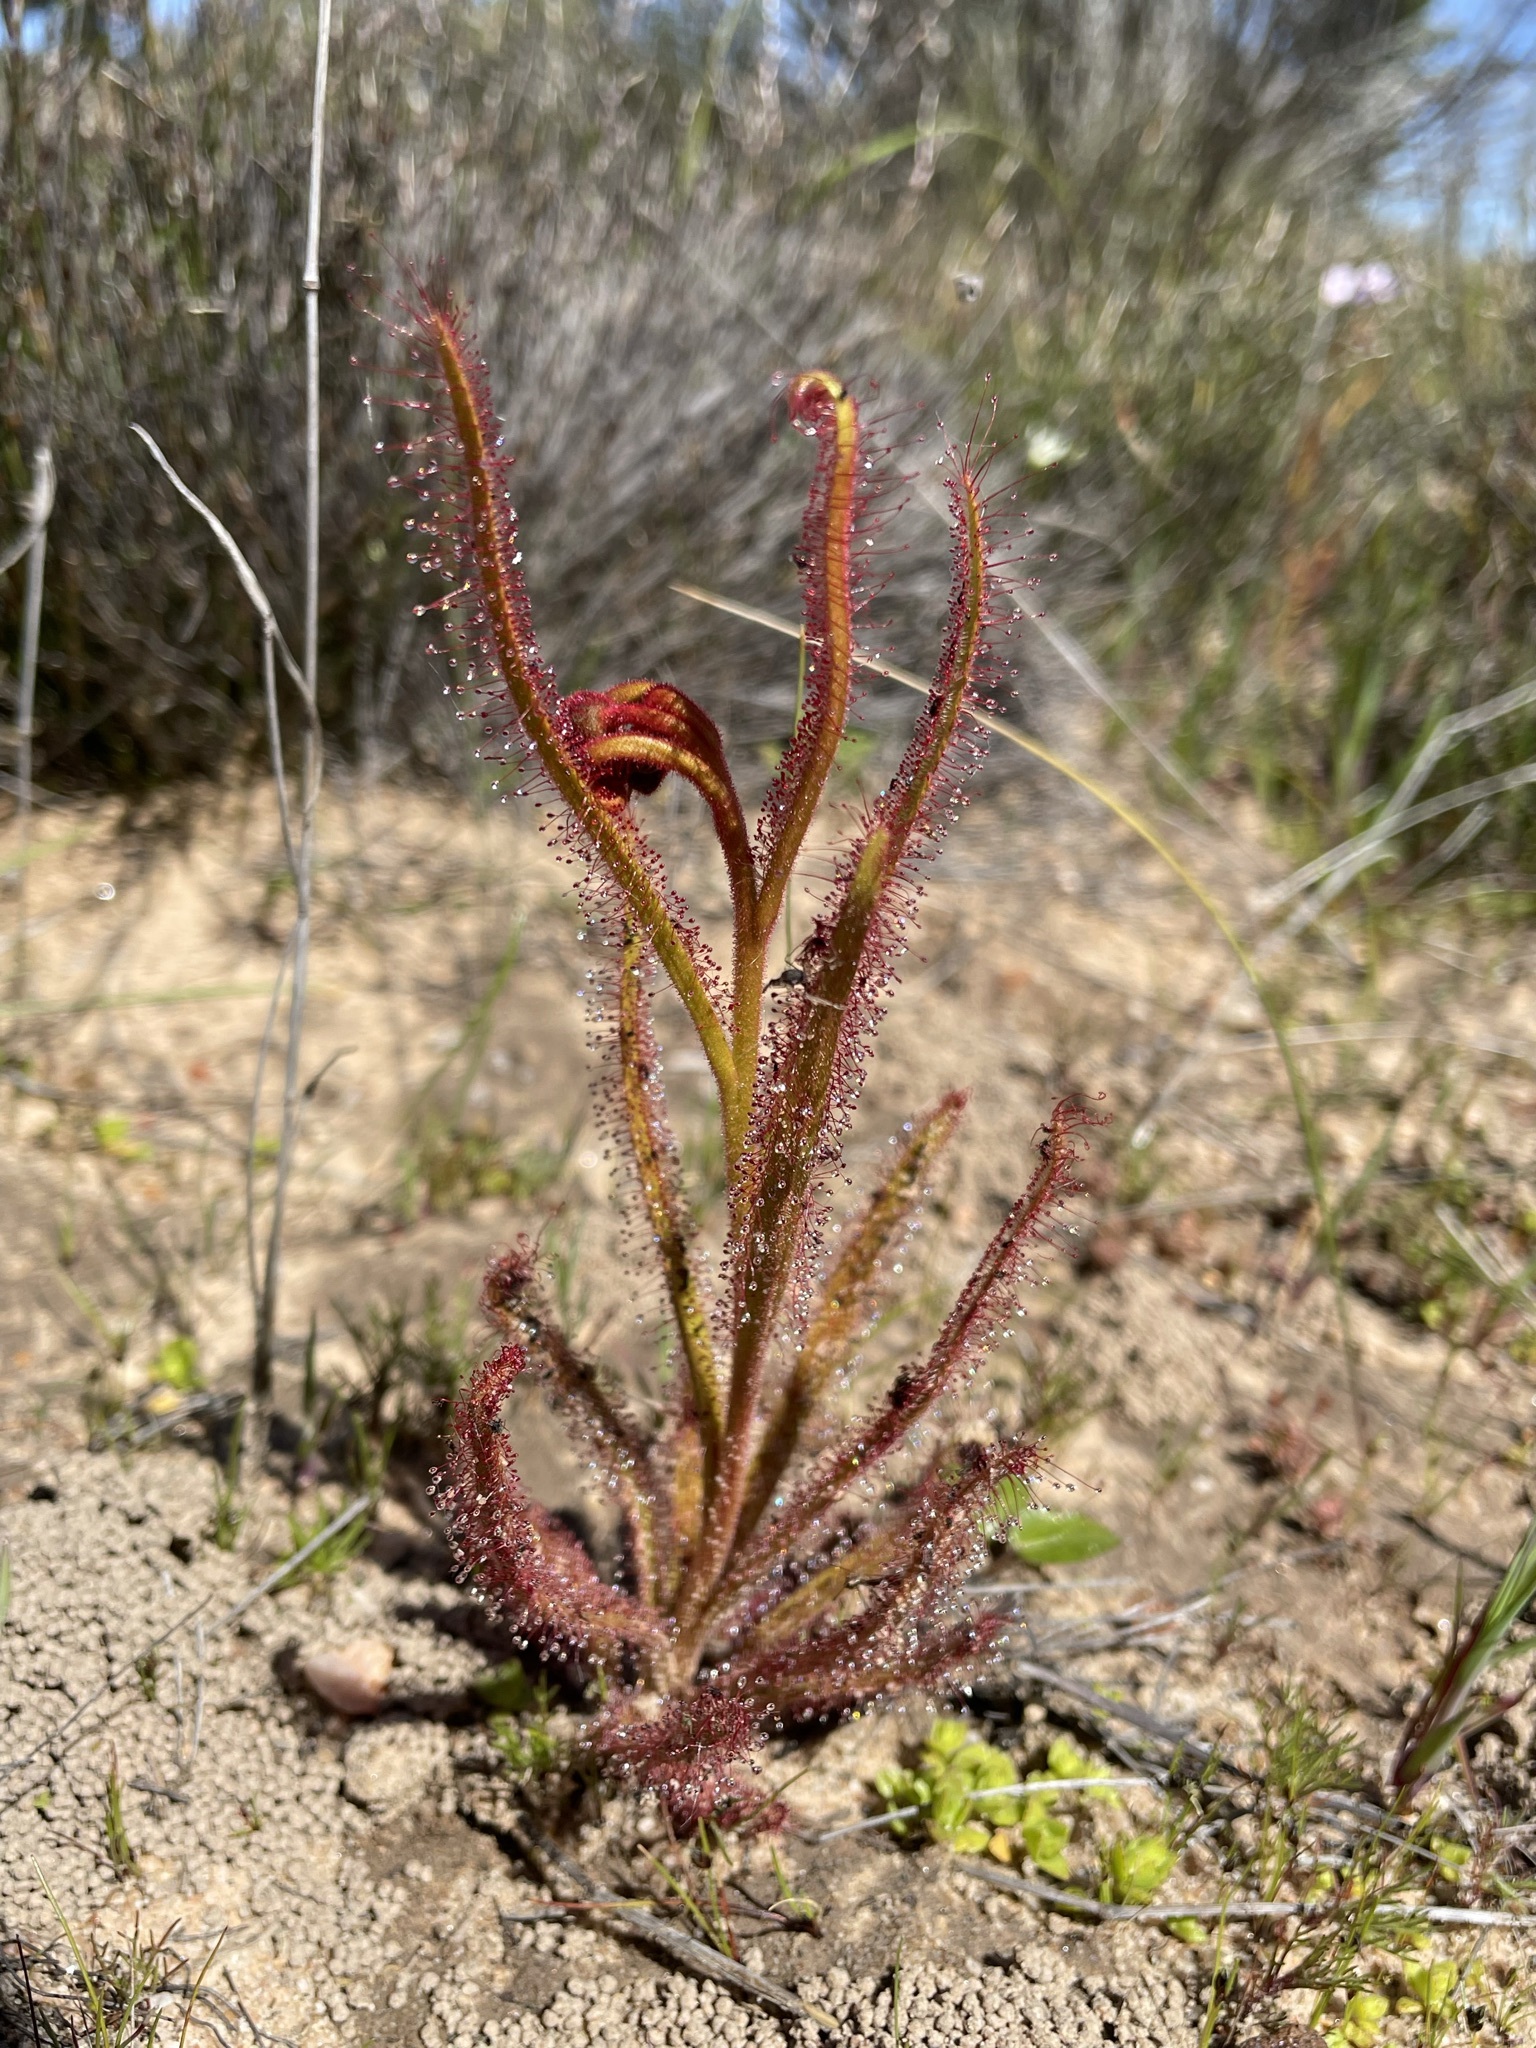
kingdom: Plantae
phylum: Tracheophyta
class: Magnoliopsida
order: Caryophyllales
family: Droseraceae
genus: Drosera
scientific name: Drosera cistiflora
